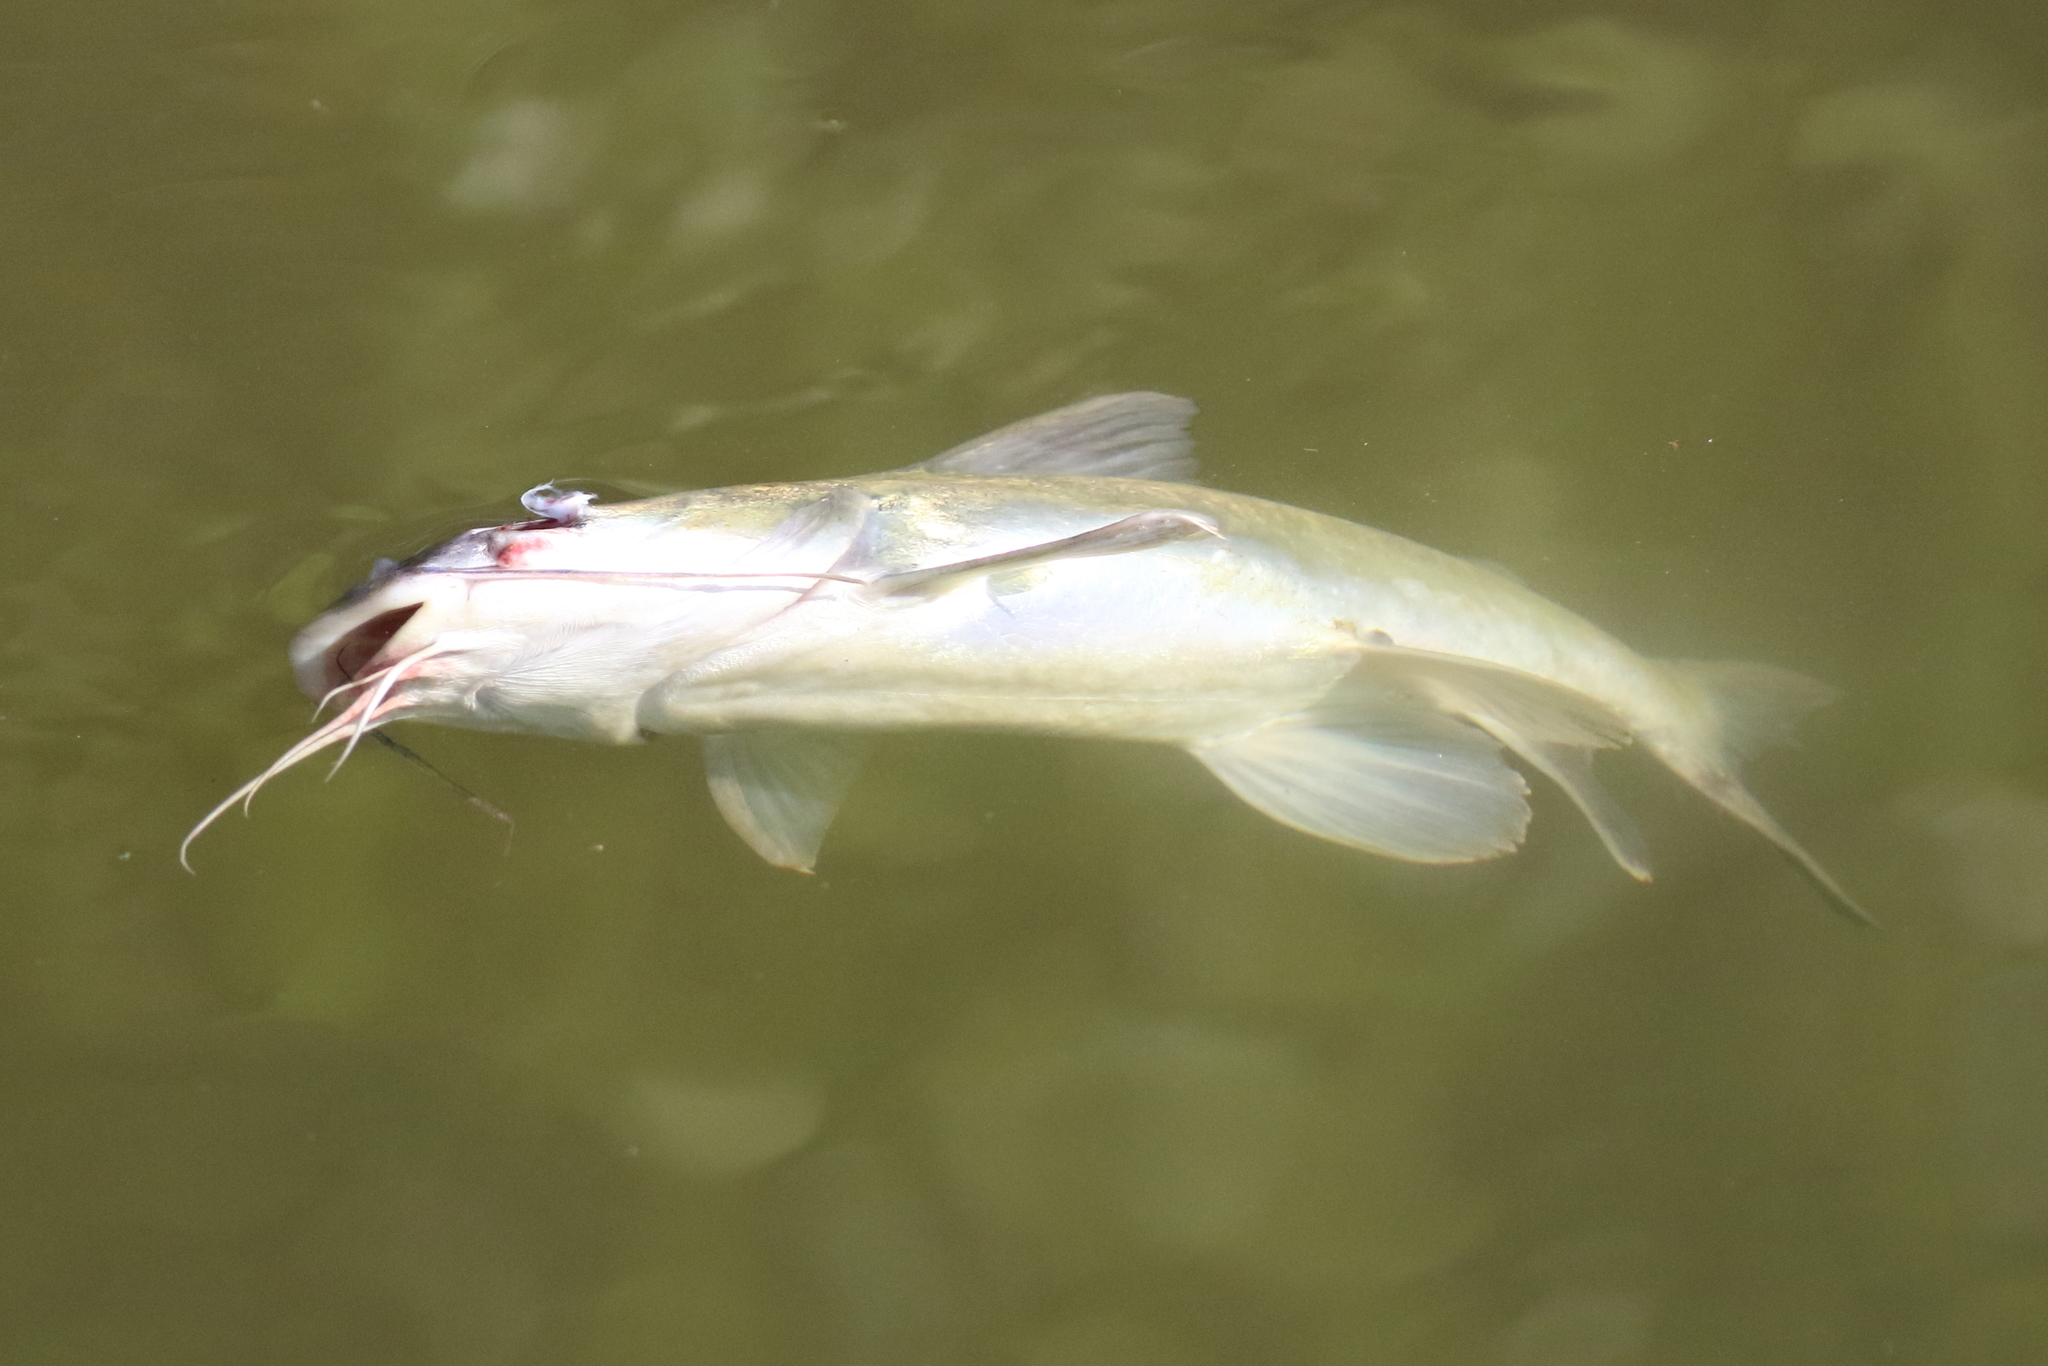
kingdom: Animalia
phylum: Chordata
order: Siluriformes
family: Ariidae
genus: Neoarius
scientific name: Neoarius graeffei
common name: Blue salmon catfish
